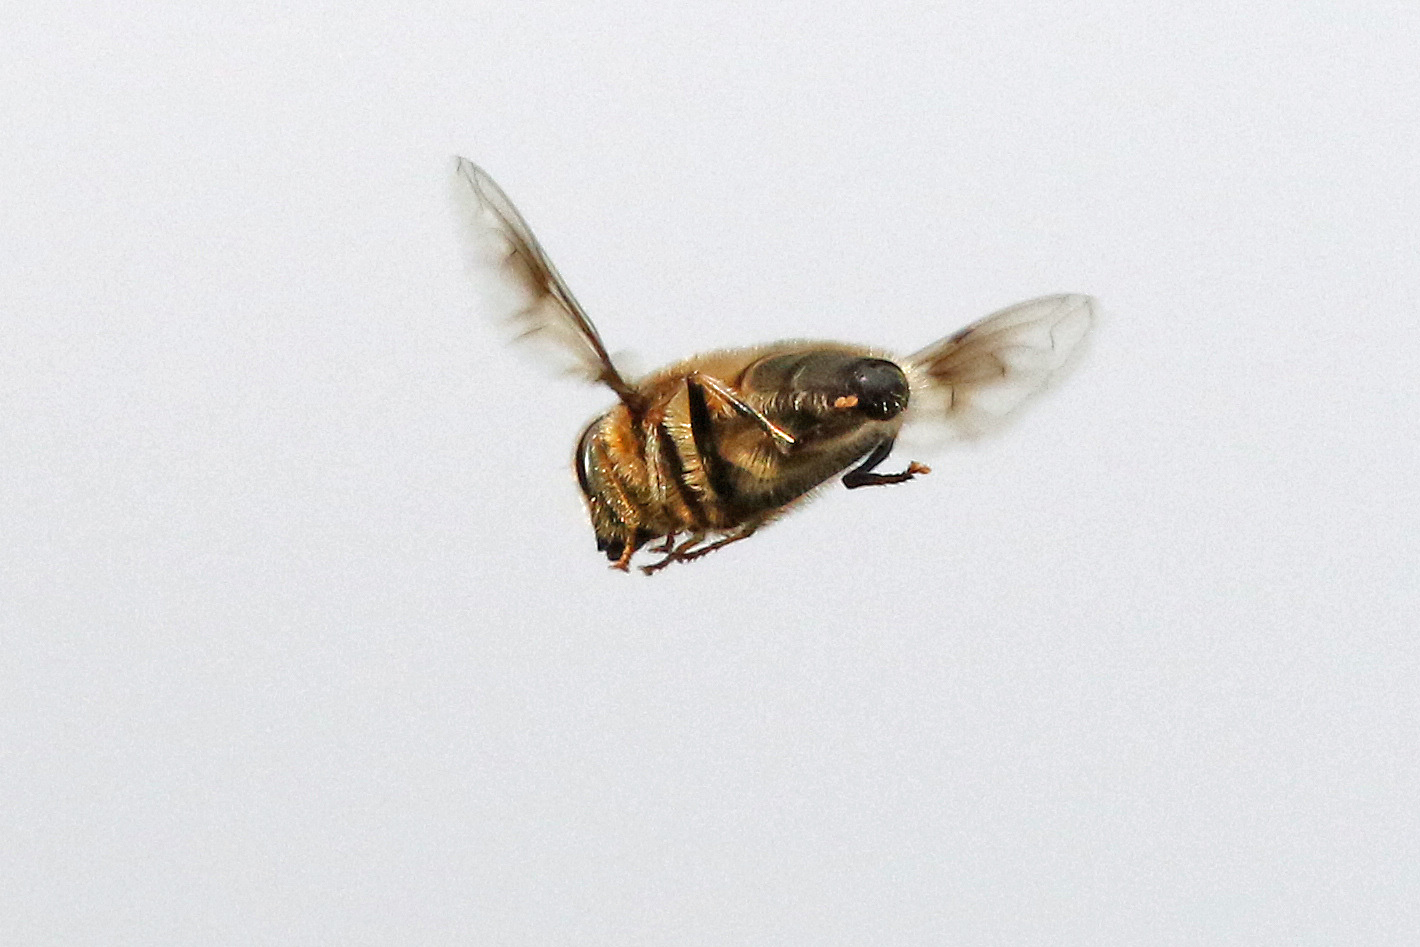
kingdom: Animalia
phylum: Arthropoda
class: Insecta
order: Diptera
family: Syrphidae
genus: Eristalis
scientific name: Eristalis pertinax
